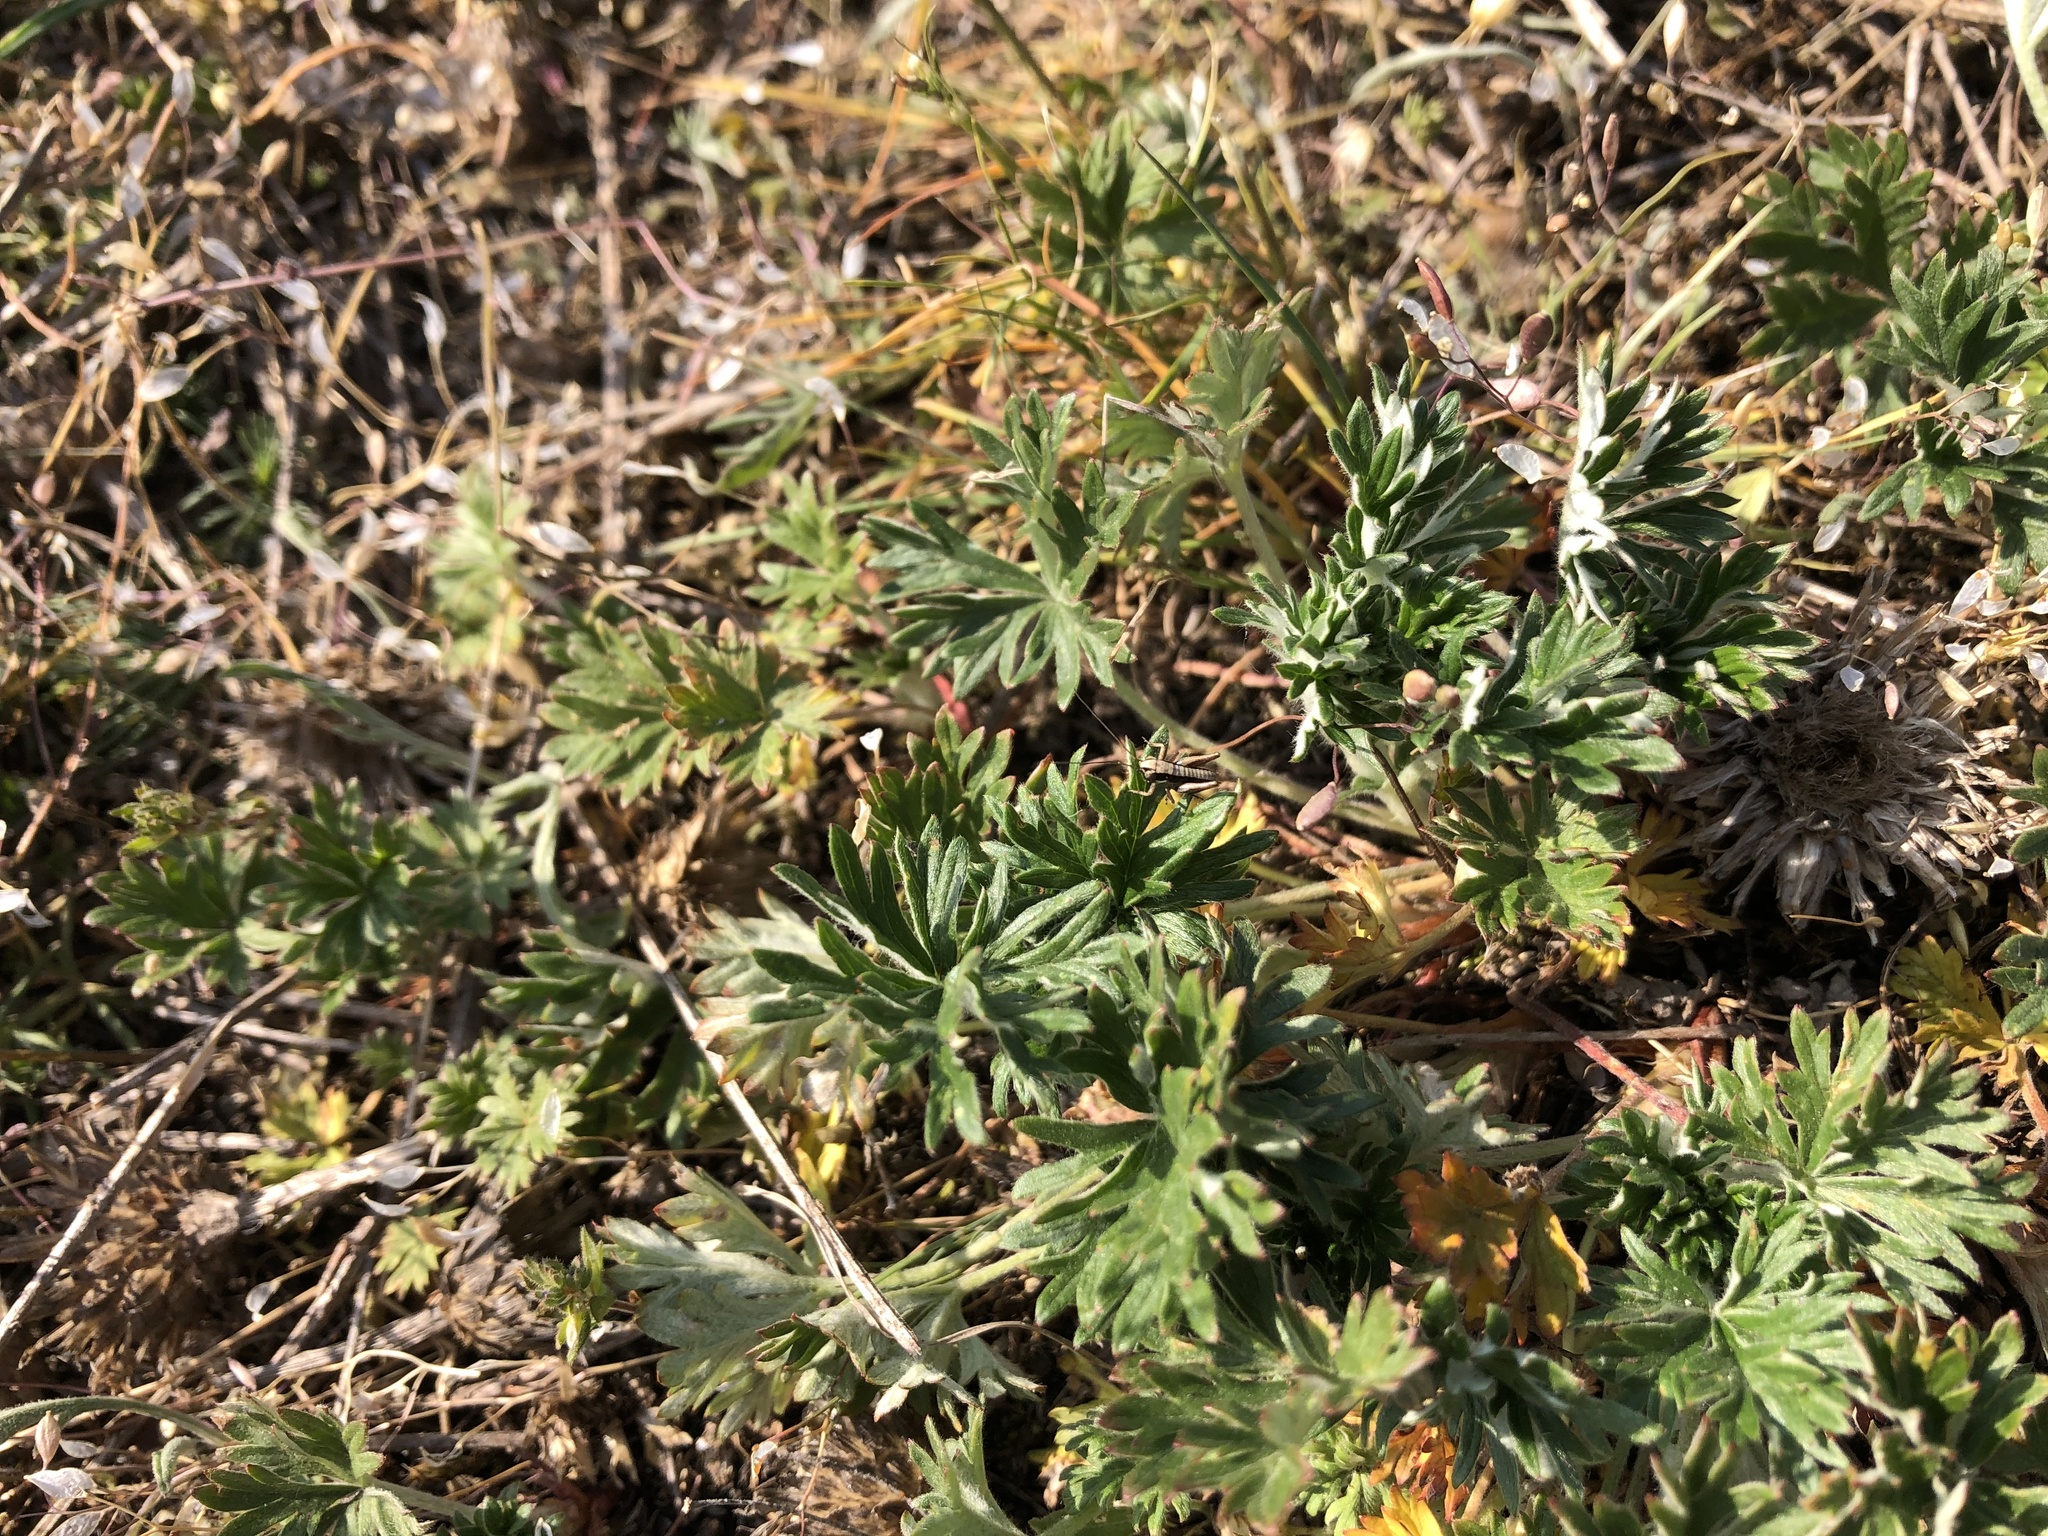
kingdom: Plantae
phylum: Tracheophyta
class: Magnoliopsida
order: Rosales
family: Rosaceae
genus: Potentilla
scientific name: Potentilla argentea
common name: Hoary cinquefoil
